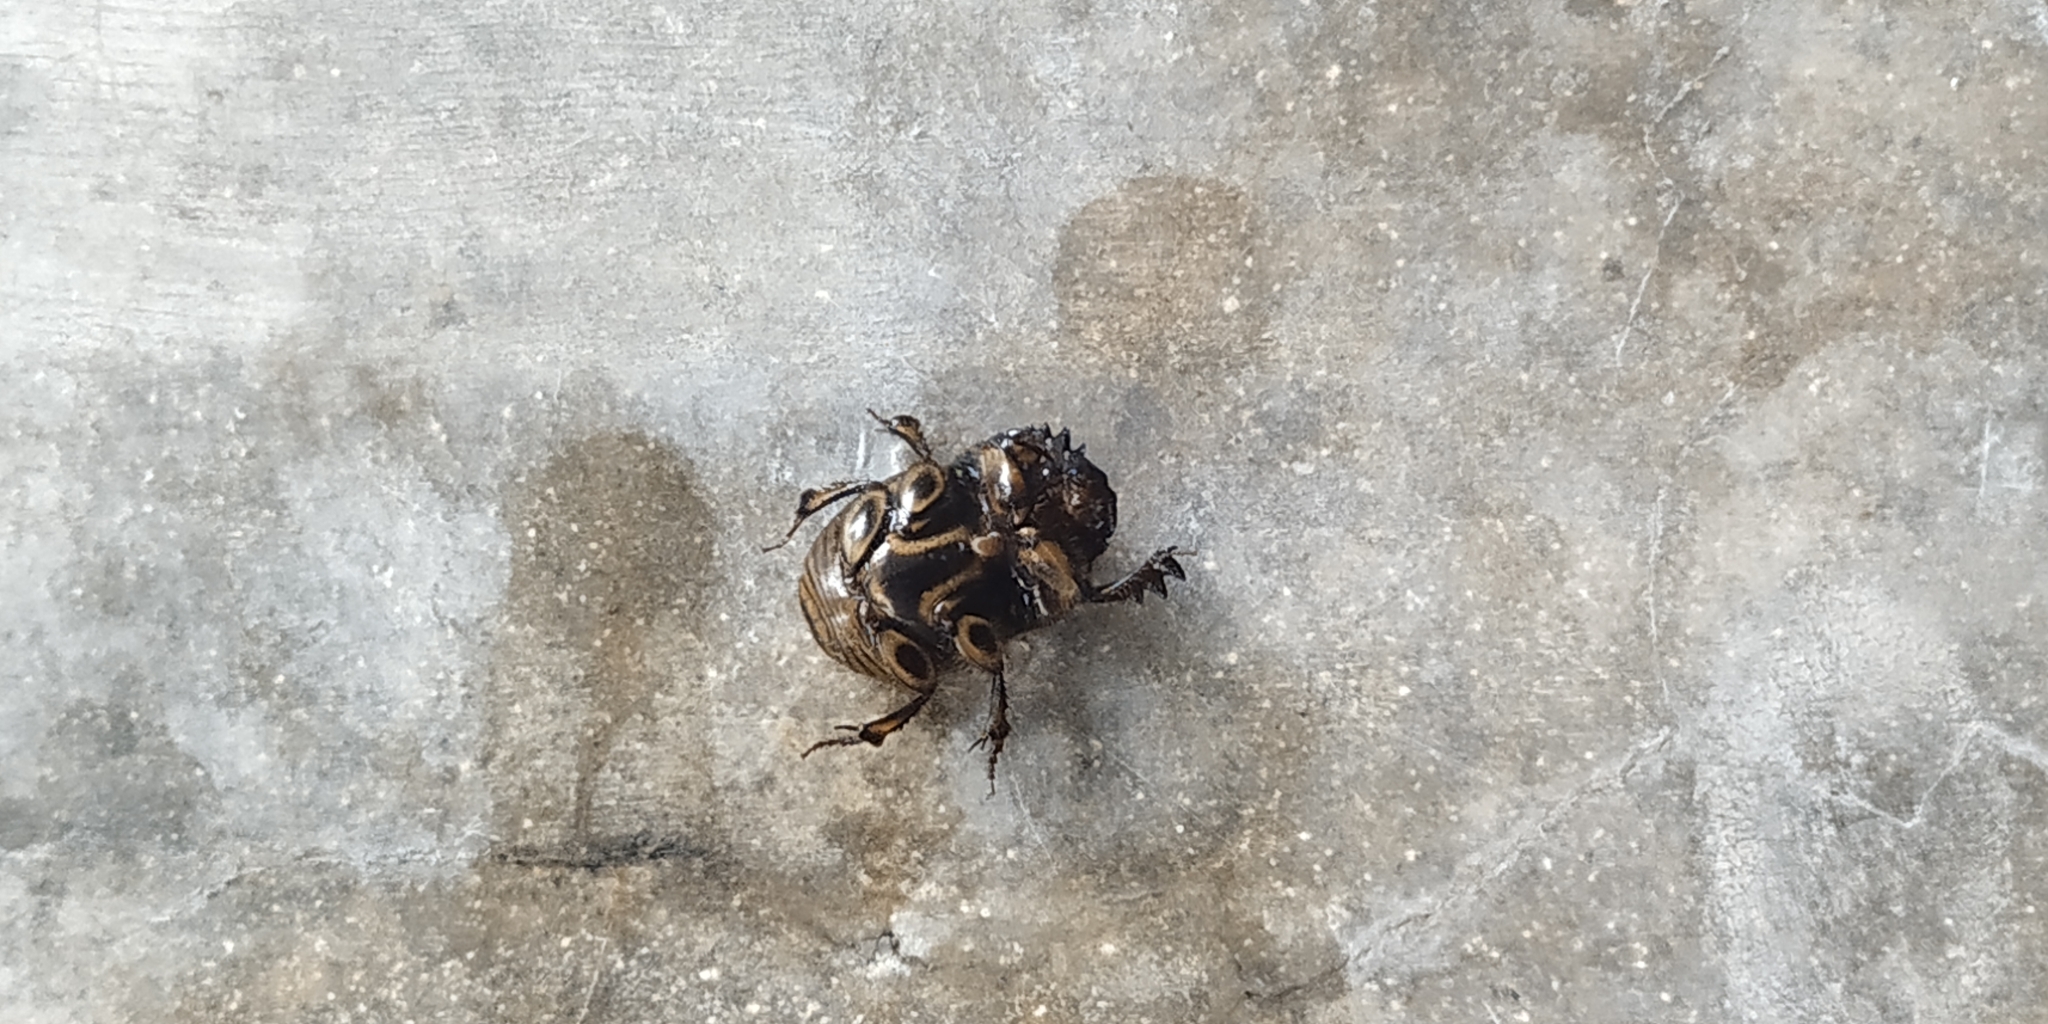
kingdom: Animalia
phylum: Arthropoda
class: Insecta
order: Coleoptera
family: Scarabaeidae
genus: Digitonthophagus
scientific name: Digitonthophagus gazella
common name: Brown dung beetle
